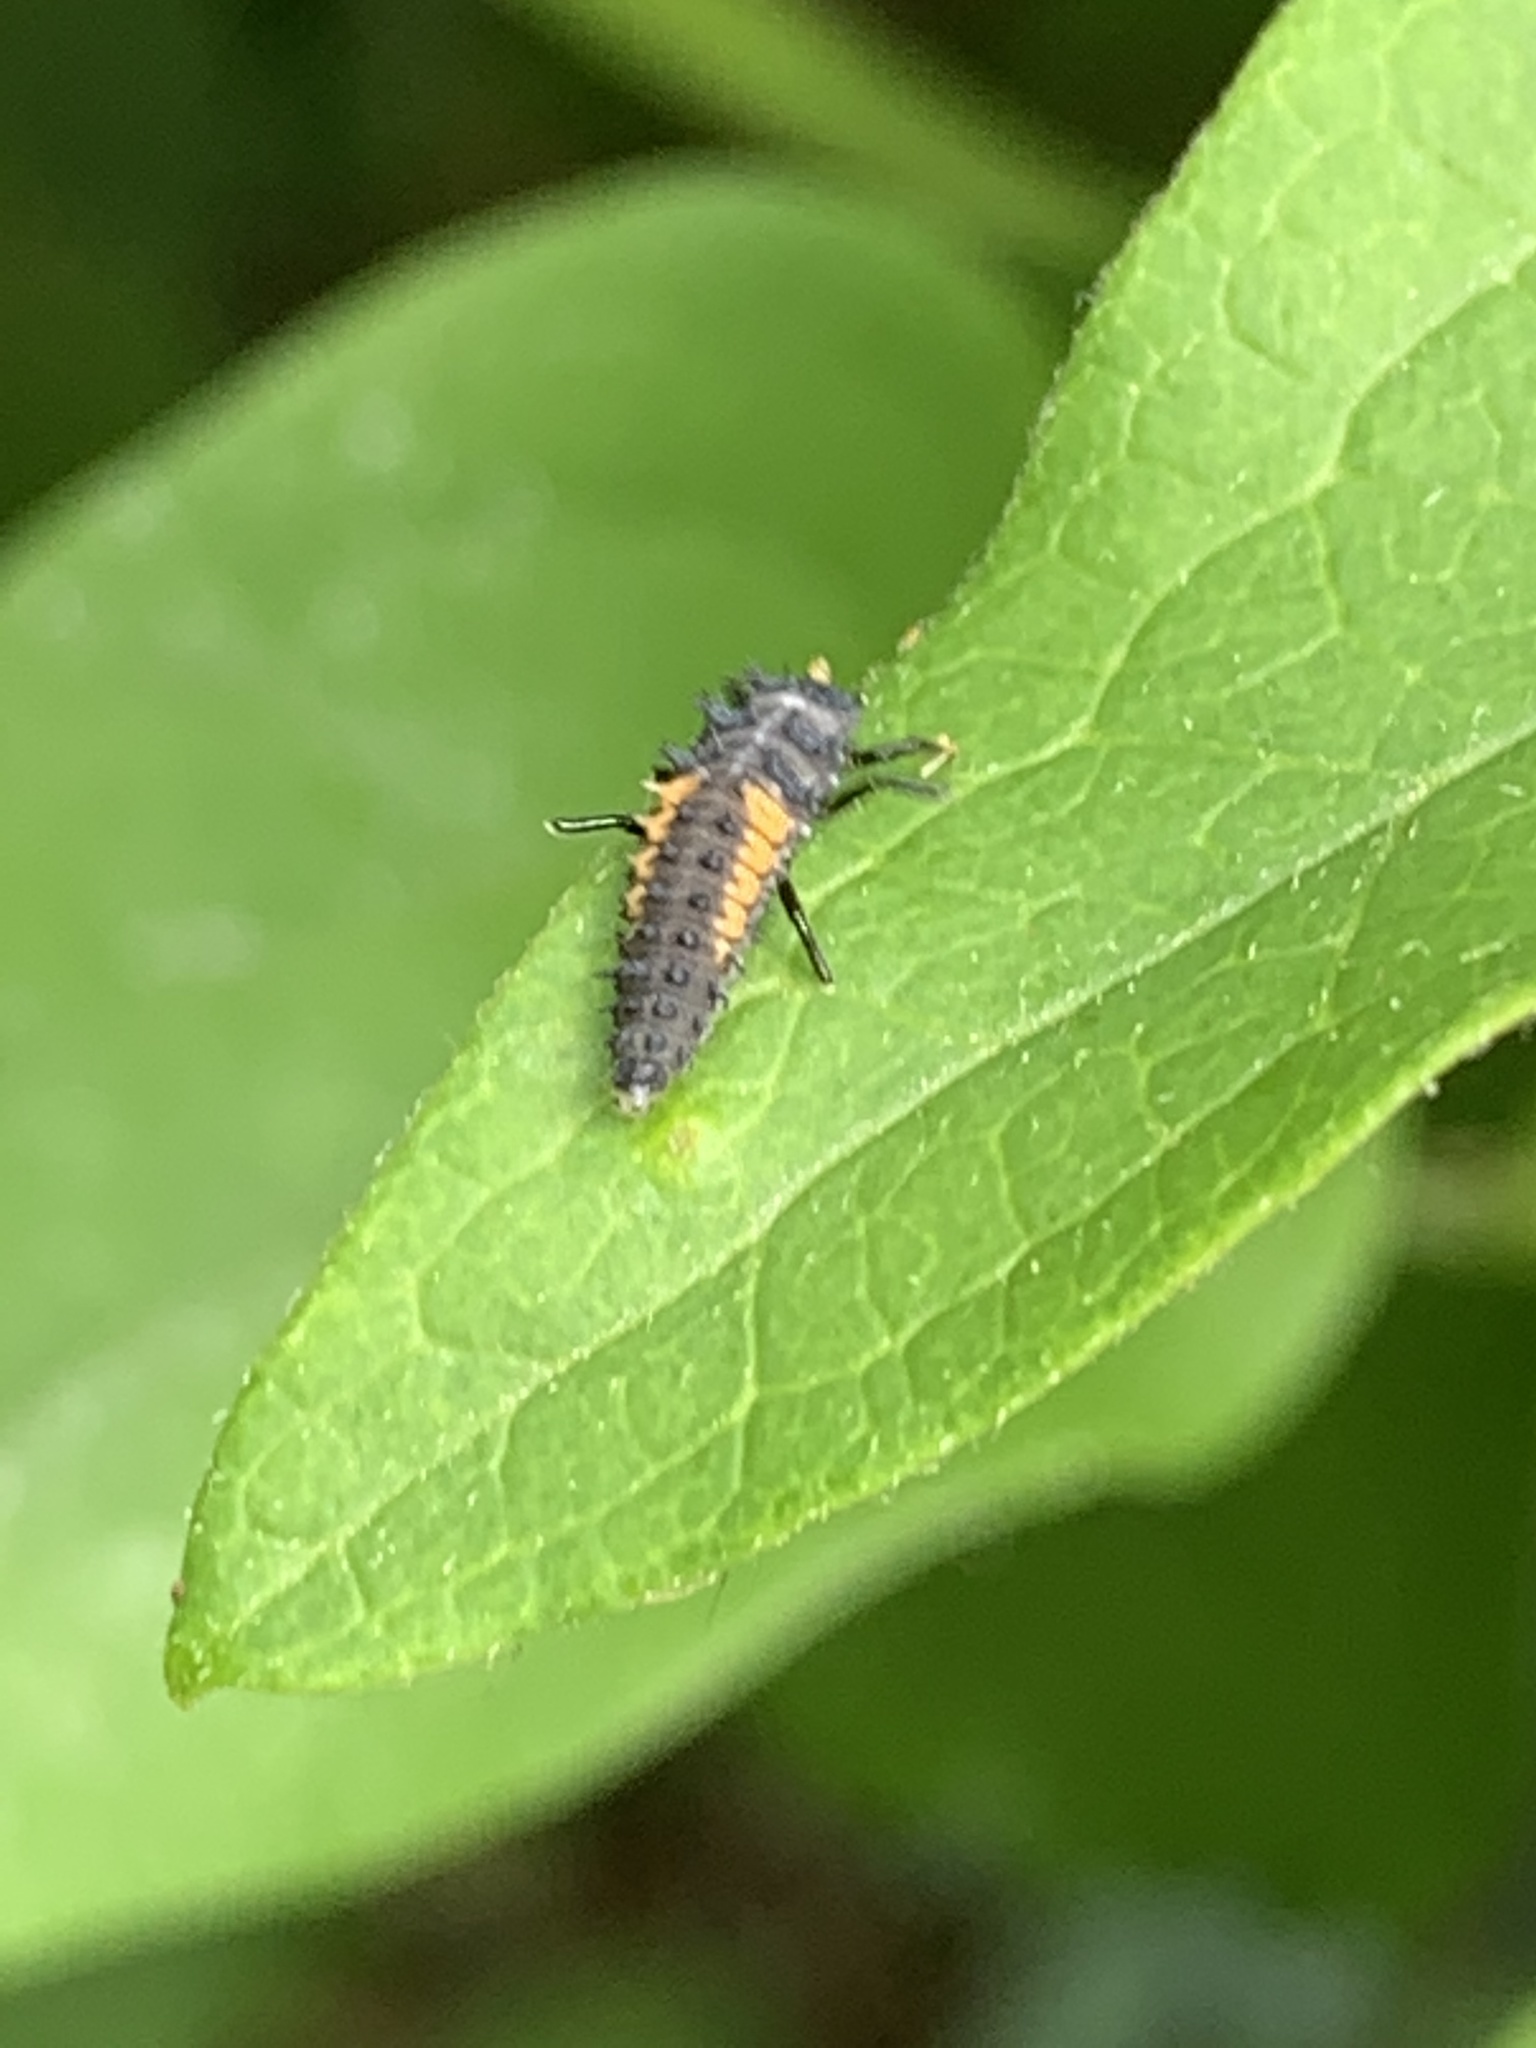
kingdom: Animalia
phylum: Arthropoda
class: Insecta
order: Coleoptera
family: Coccinellidae
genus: Harmonia
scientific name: Harmonia axyridis
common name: Harlequin ladybird
